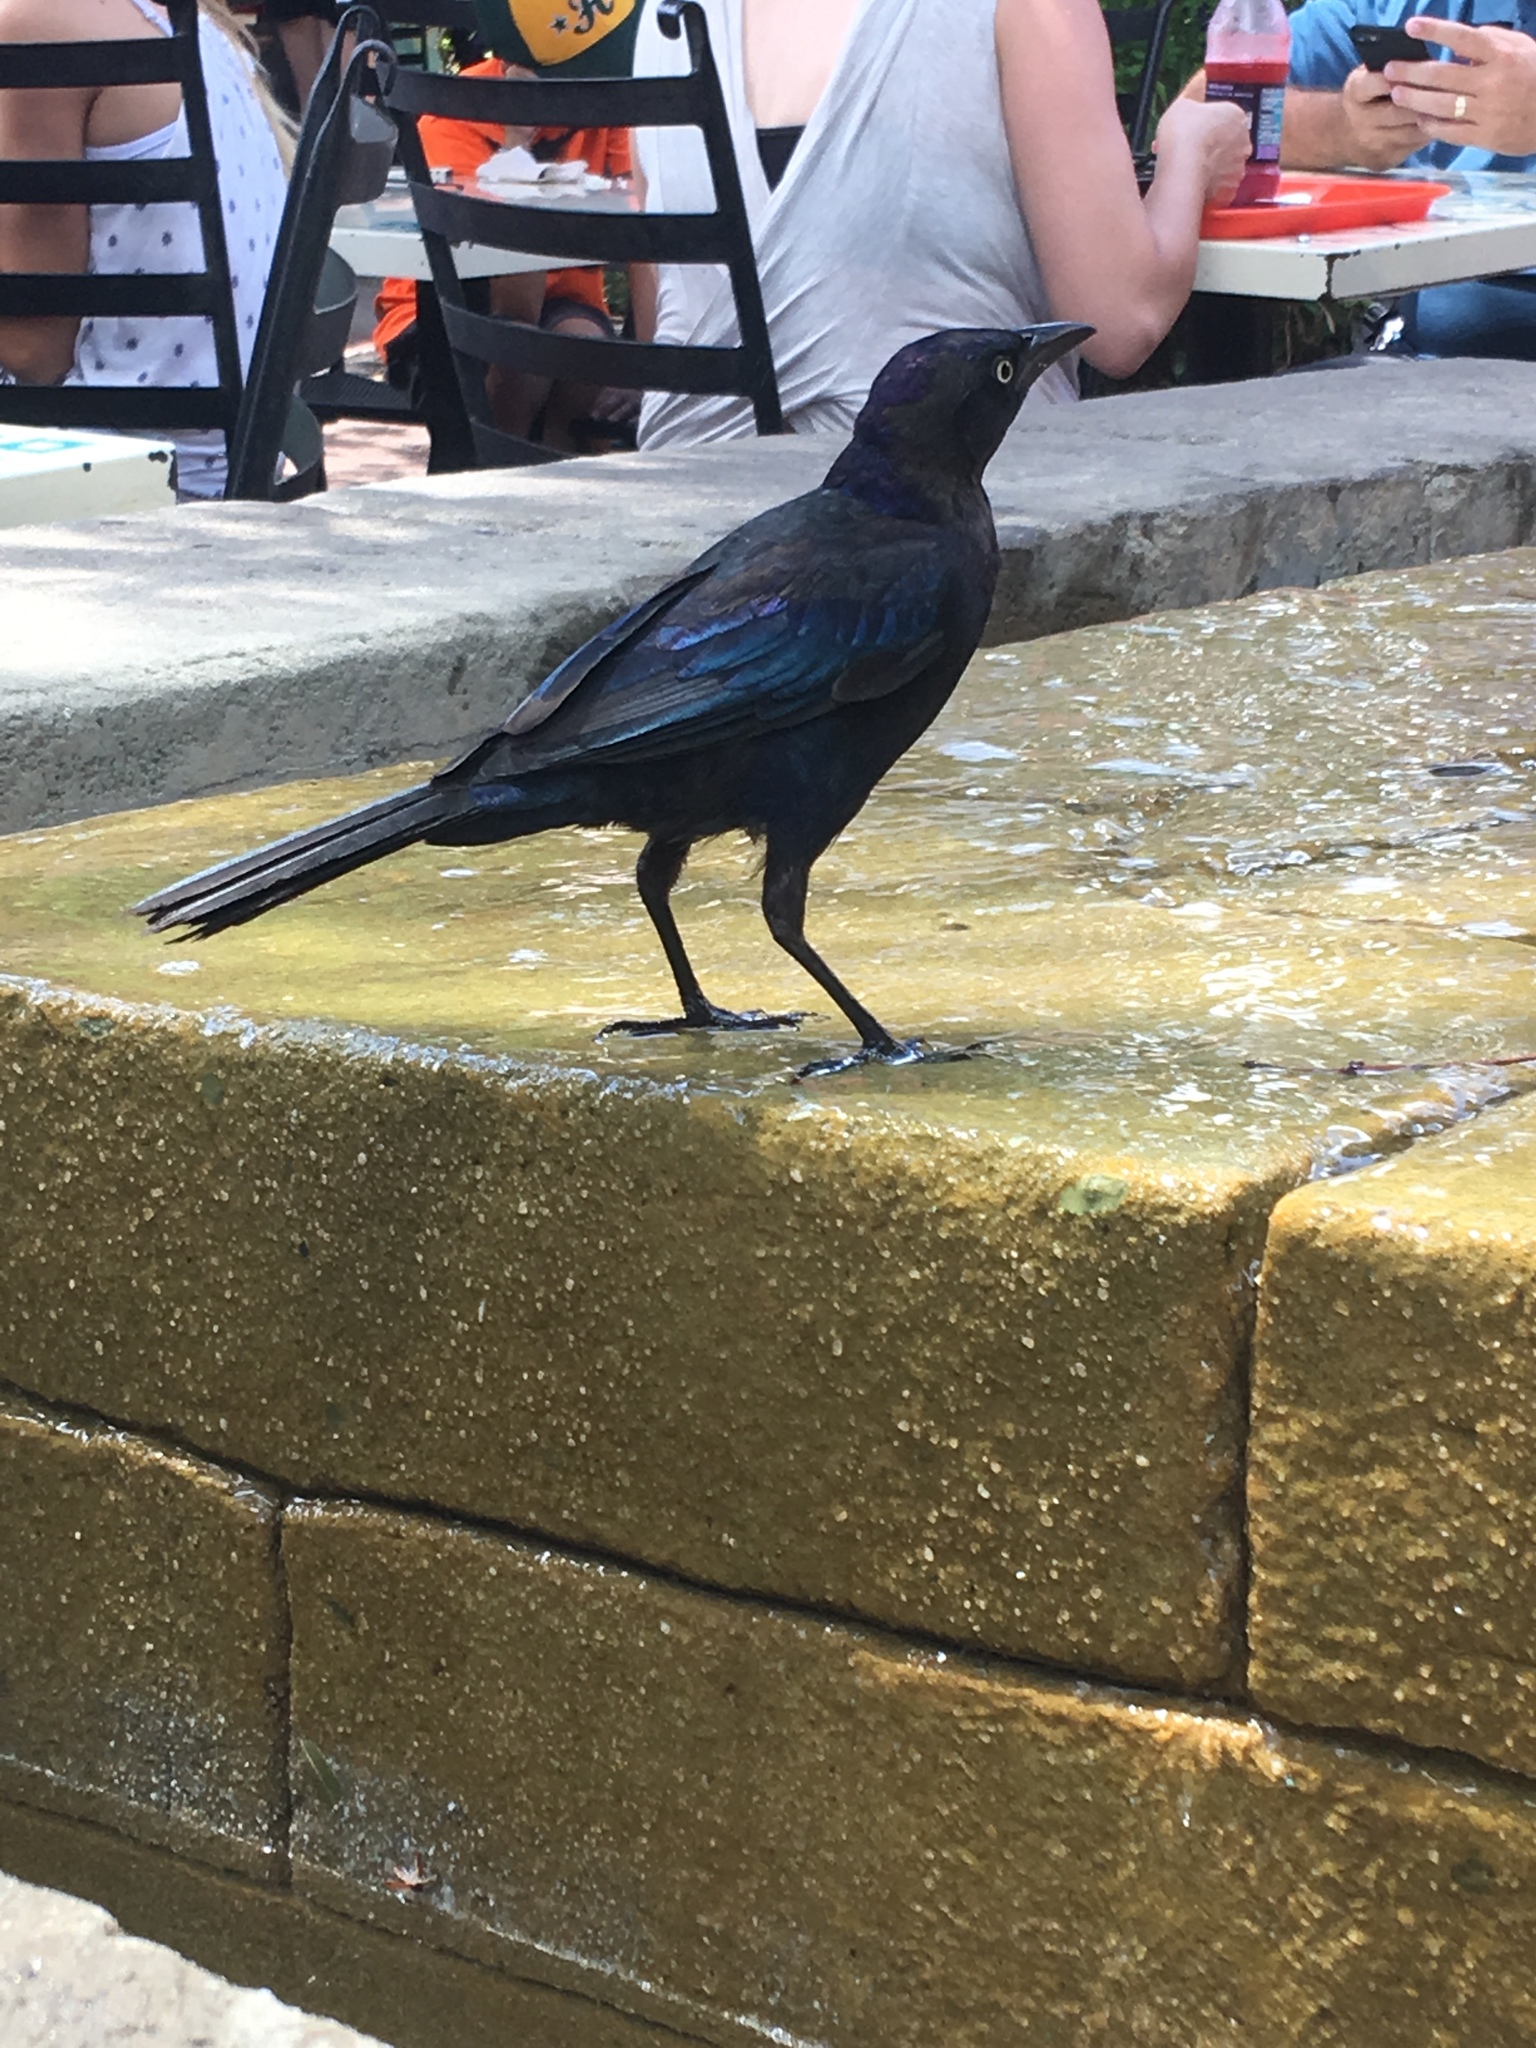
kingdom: Animalia
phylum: Chordata
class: Aves
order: Passeriformes
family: Icteridae
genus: Quiscalus
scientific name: Quiscalus quiscula
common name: Common grackle
